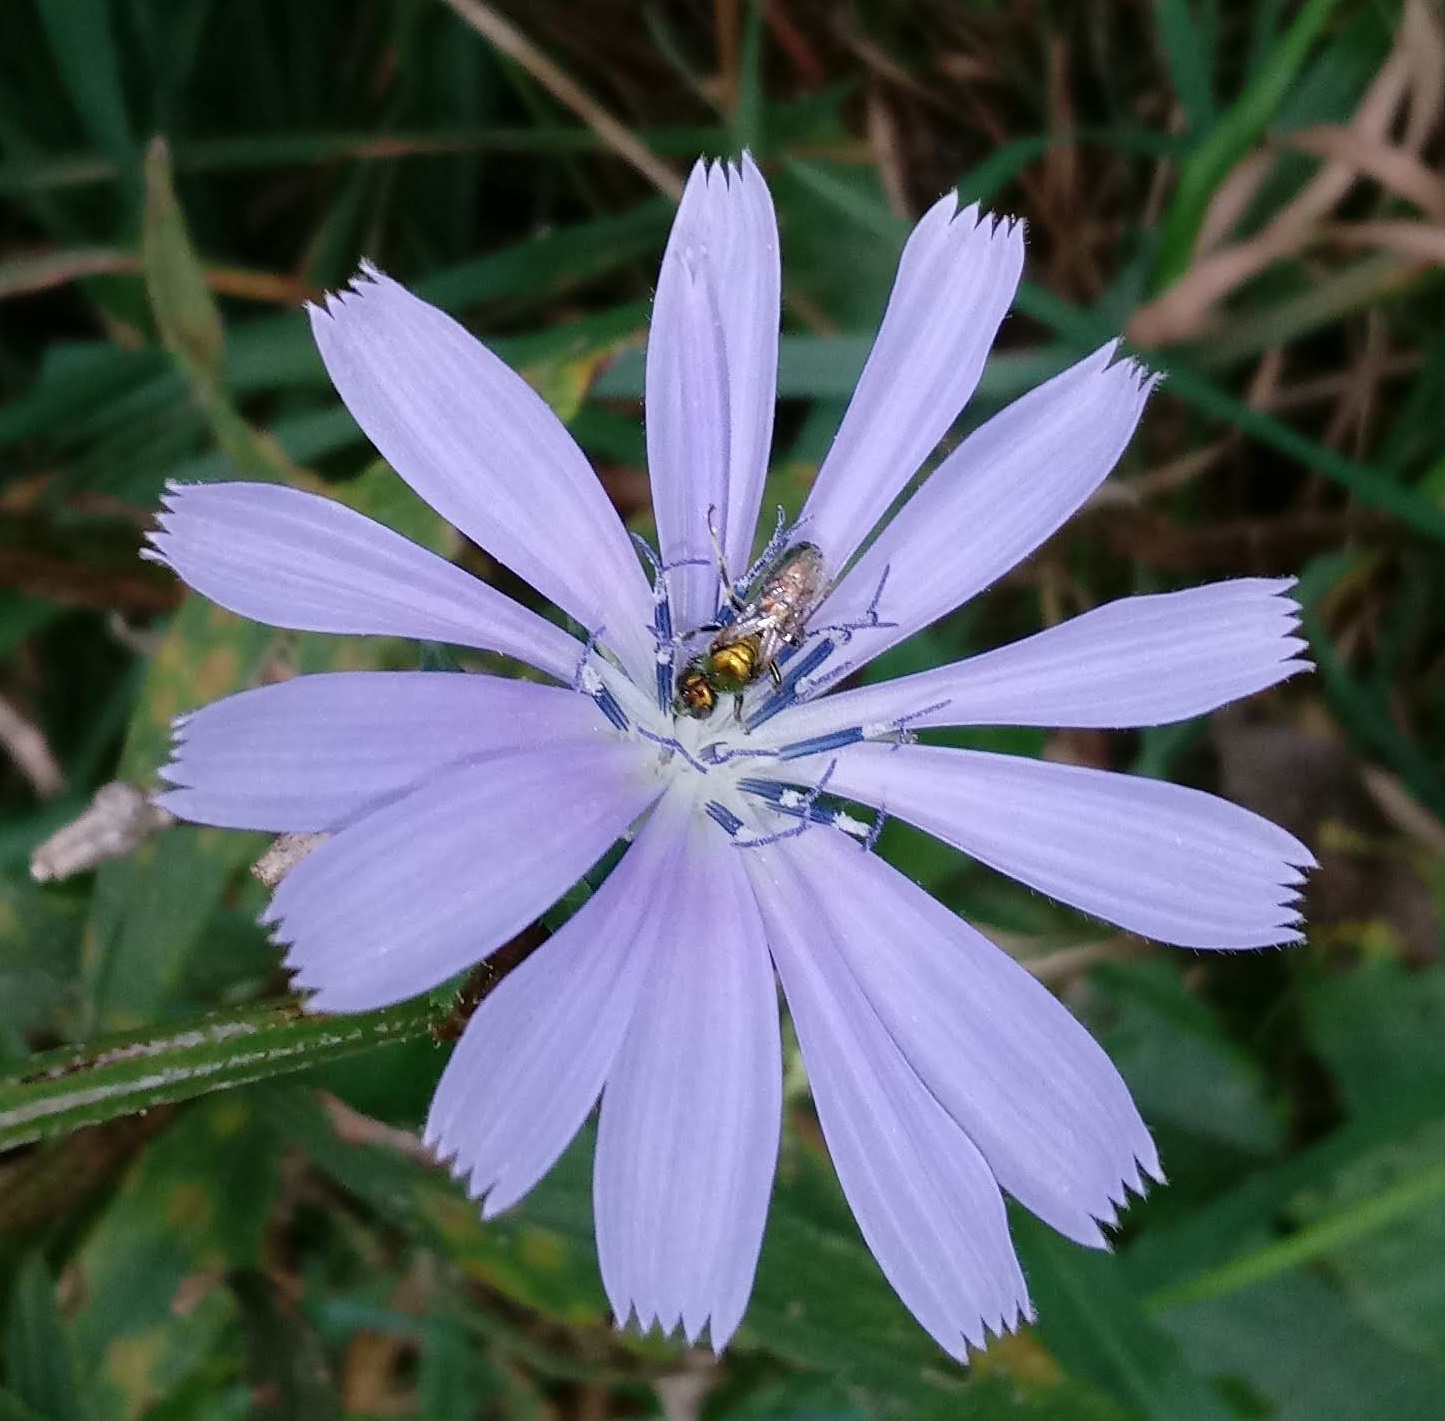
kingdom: Plantae
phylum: Tracheophyta
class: Magnoliopsida
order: Asterales
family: Asteraceae
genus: Cichorium
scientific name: Cichorium intybus
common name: Chicory
